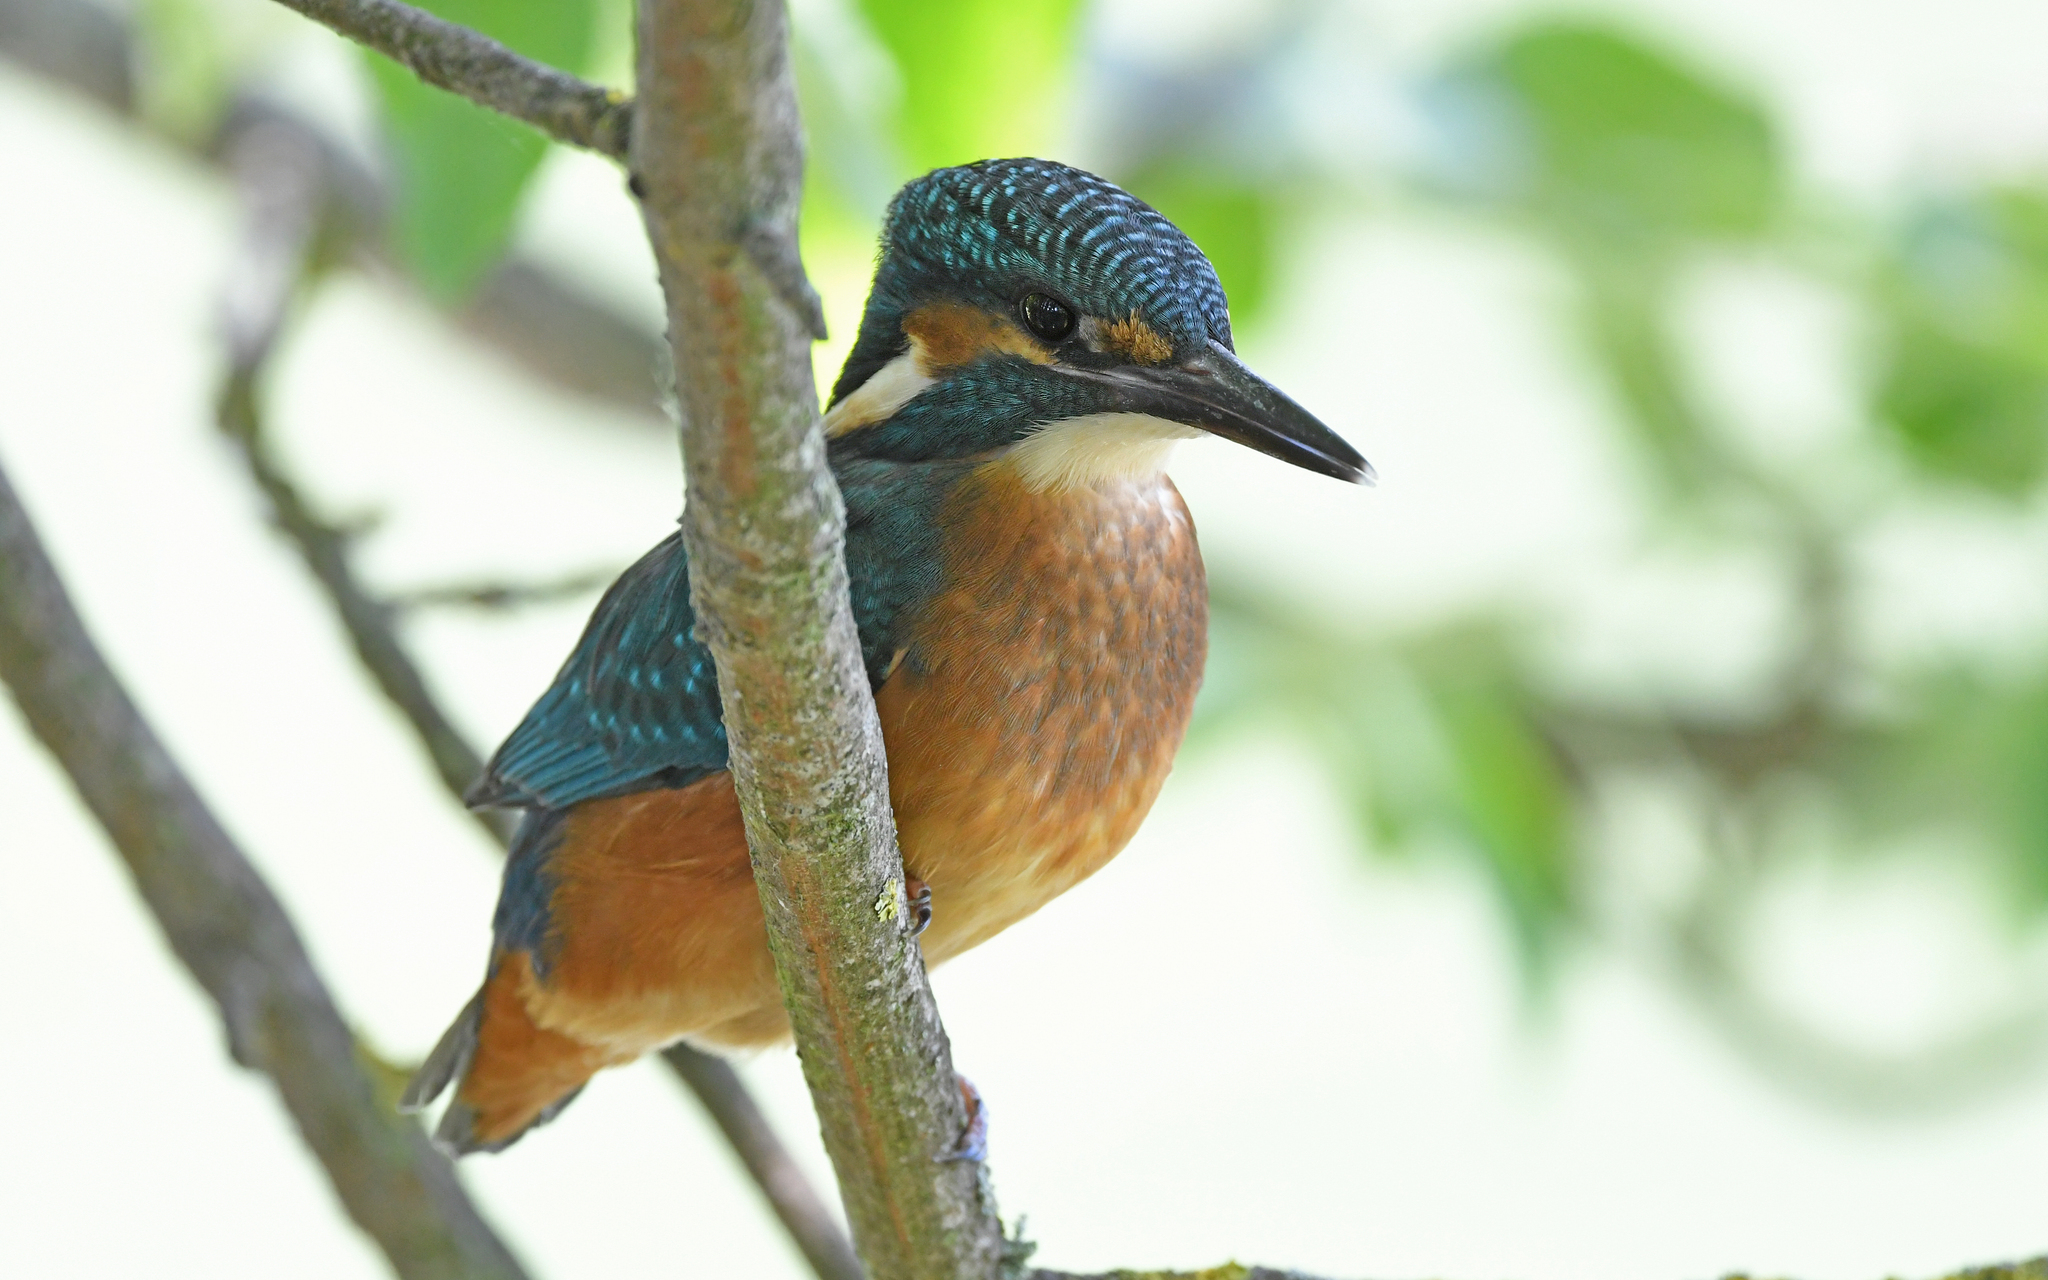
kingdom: Animalia
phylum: Chordata
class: Aves
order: Coraciiformes
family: Alcedinidae
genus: Alcedo
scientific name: Alcedo atthis
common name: Common kingfisher
